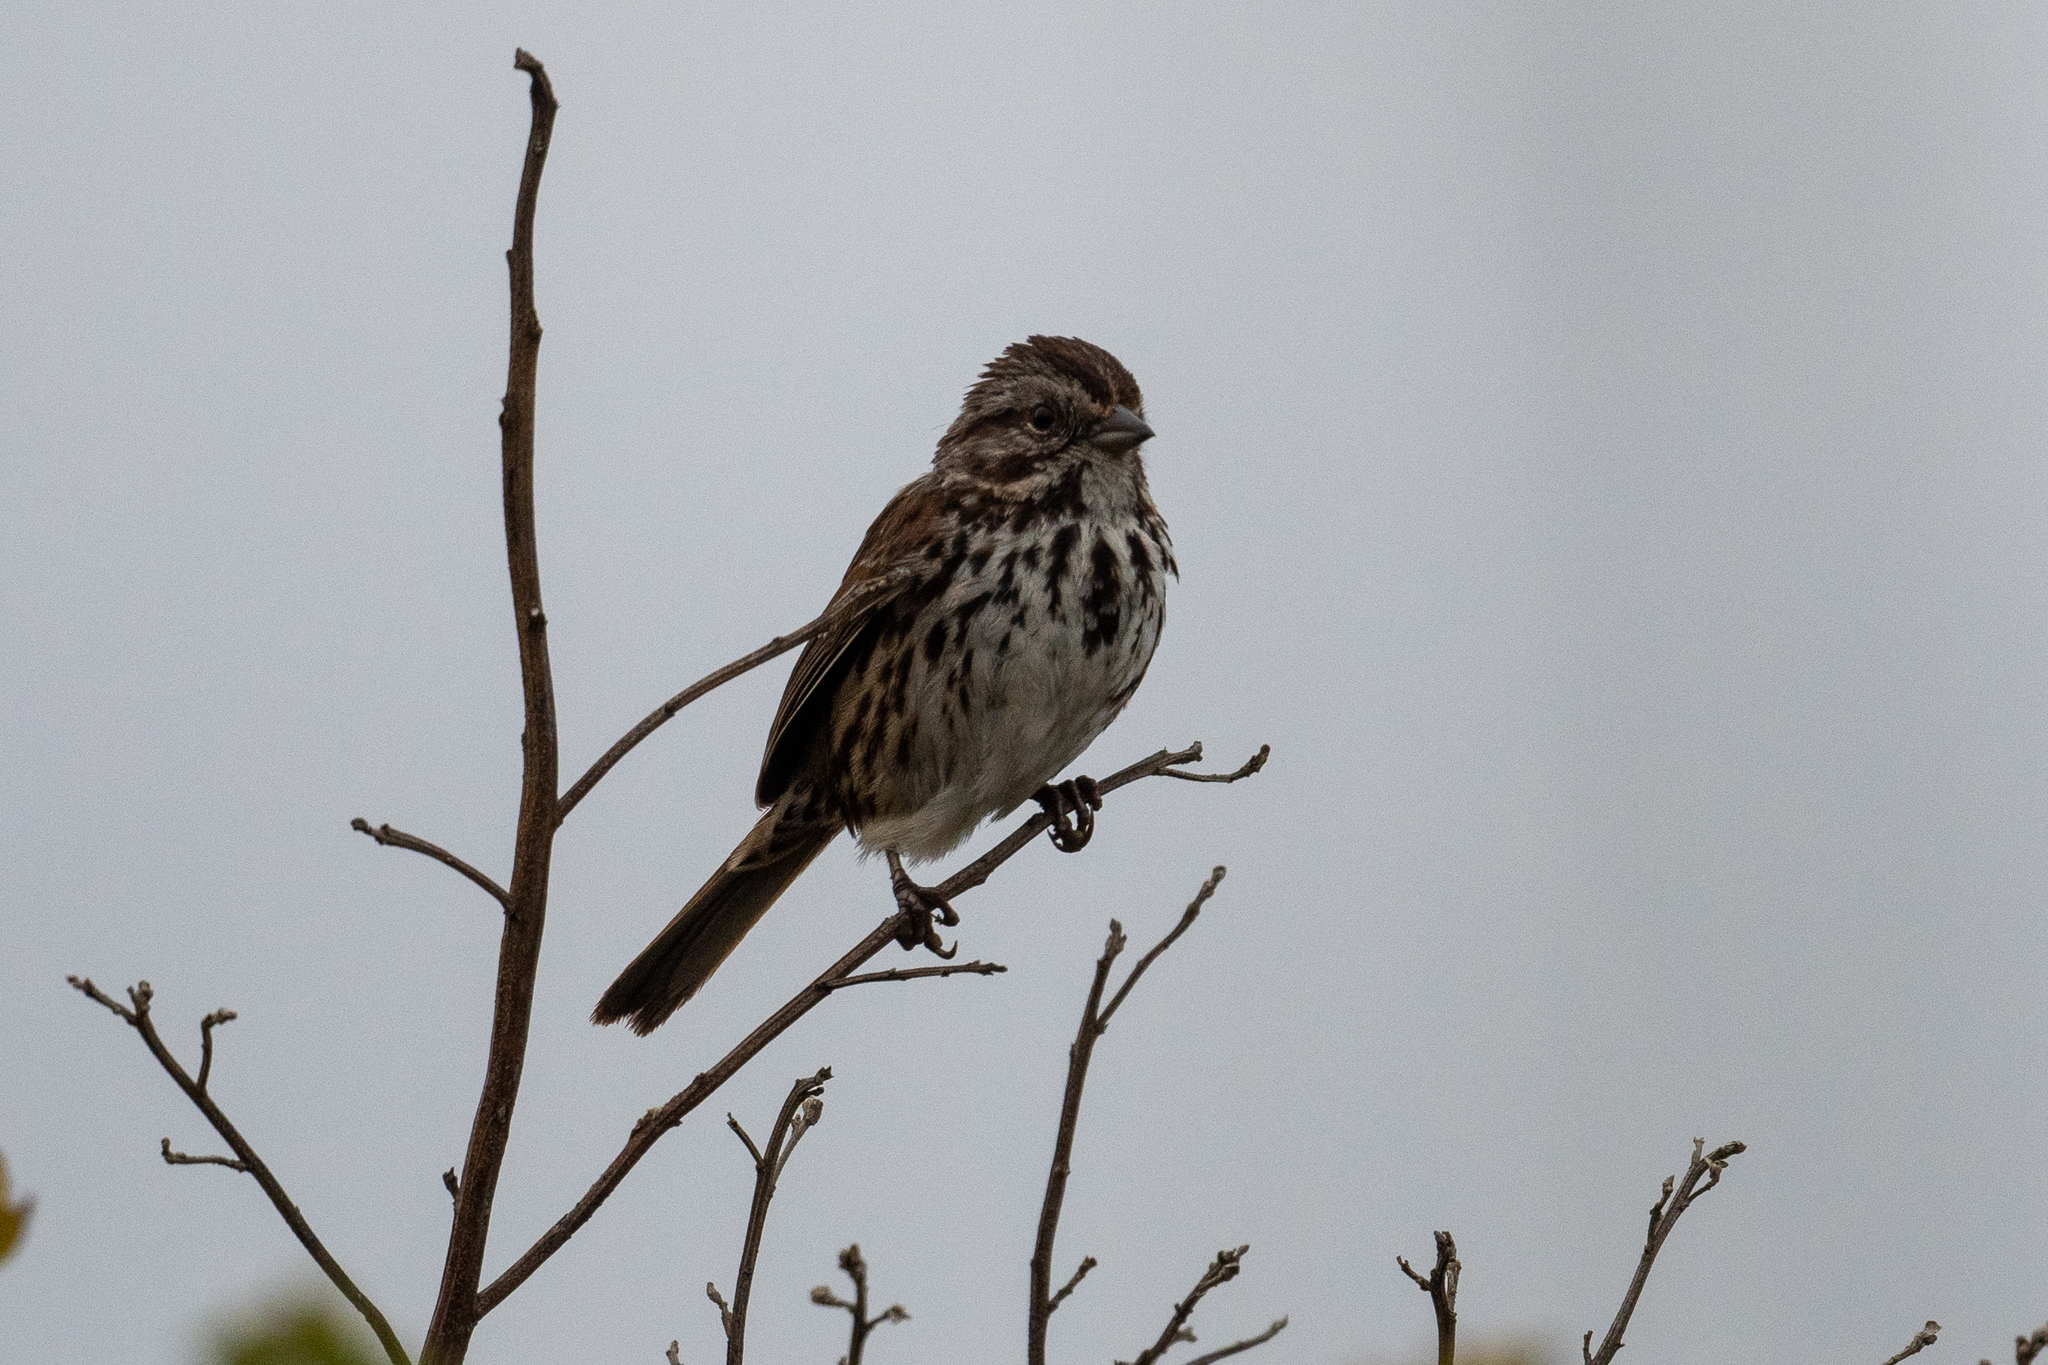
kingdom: Animalia
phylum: Chordata
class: Aves
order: Passeriformes
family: Passerellidae
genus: Melospiza
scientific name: Melospiza melodia
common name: Song sparrow
